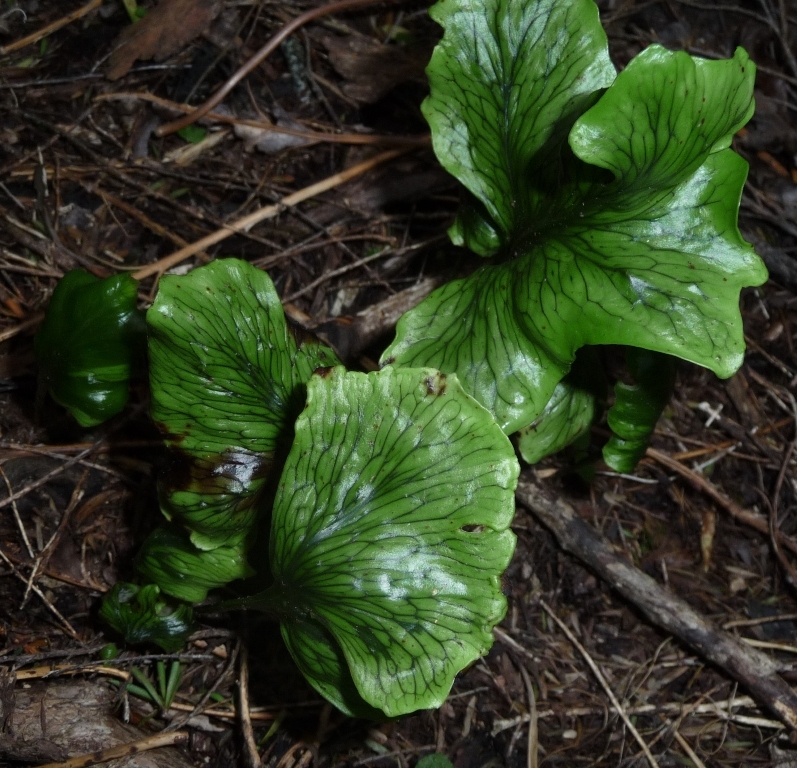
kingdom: Plantae
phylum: Tracheophyta
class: Polypodiopsida
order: Polypodiales
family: Polypodiaceae
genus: Lecanopteris
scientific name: Lecanopteris pustulata
